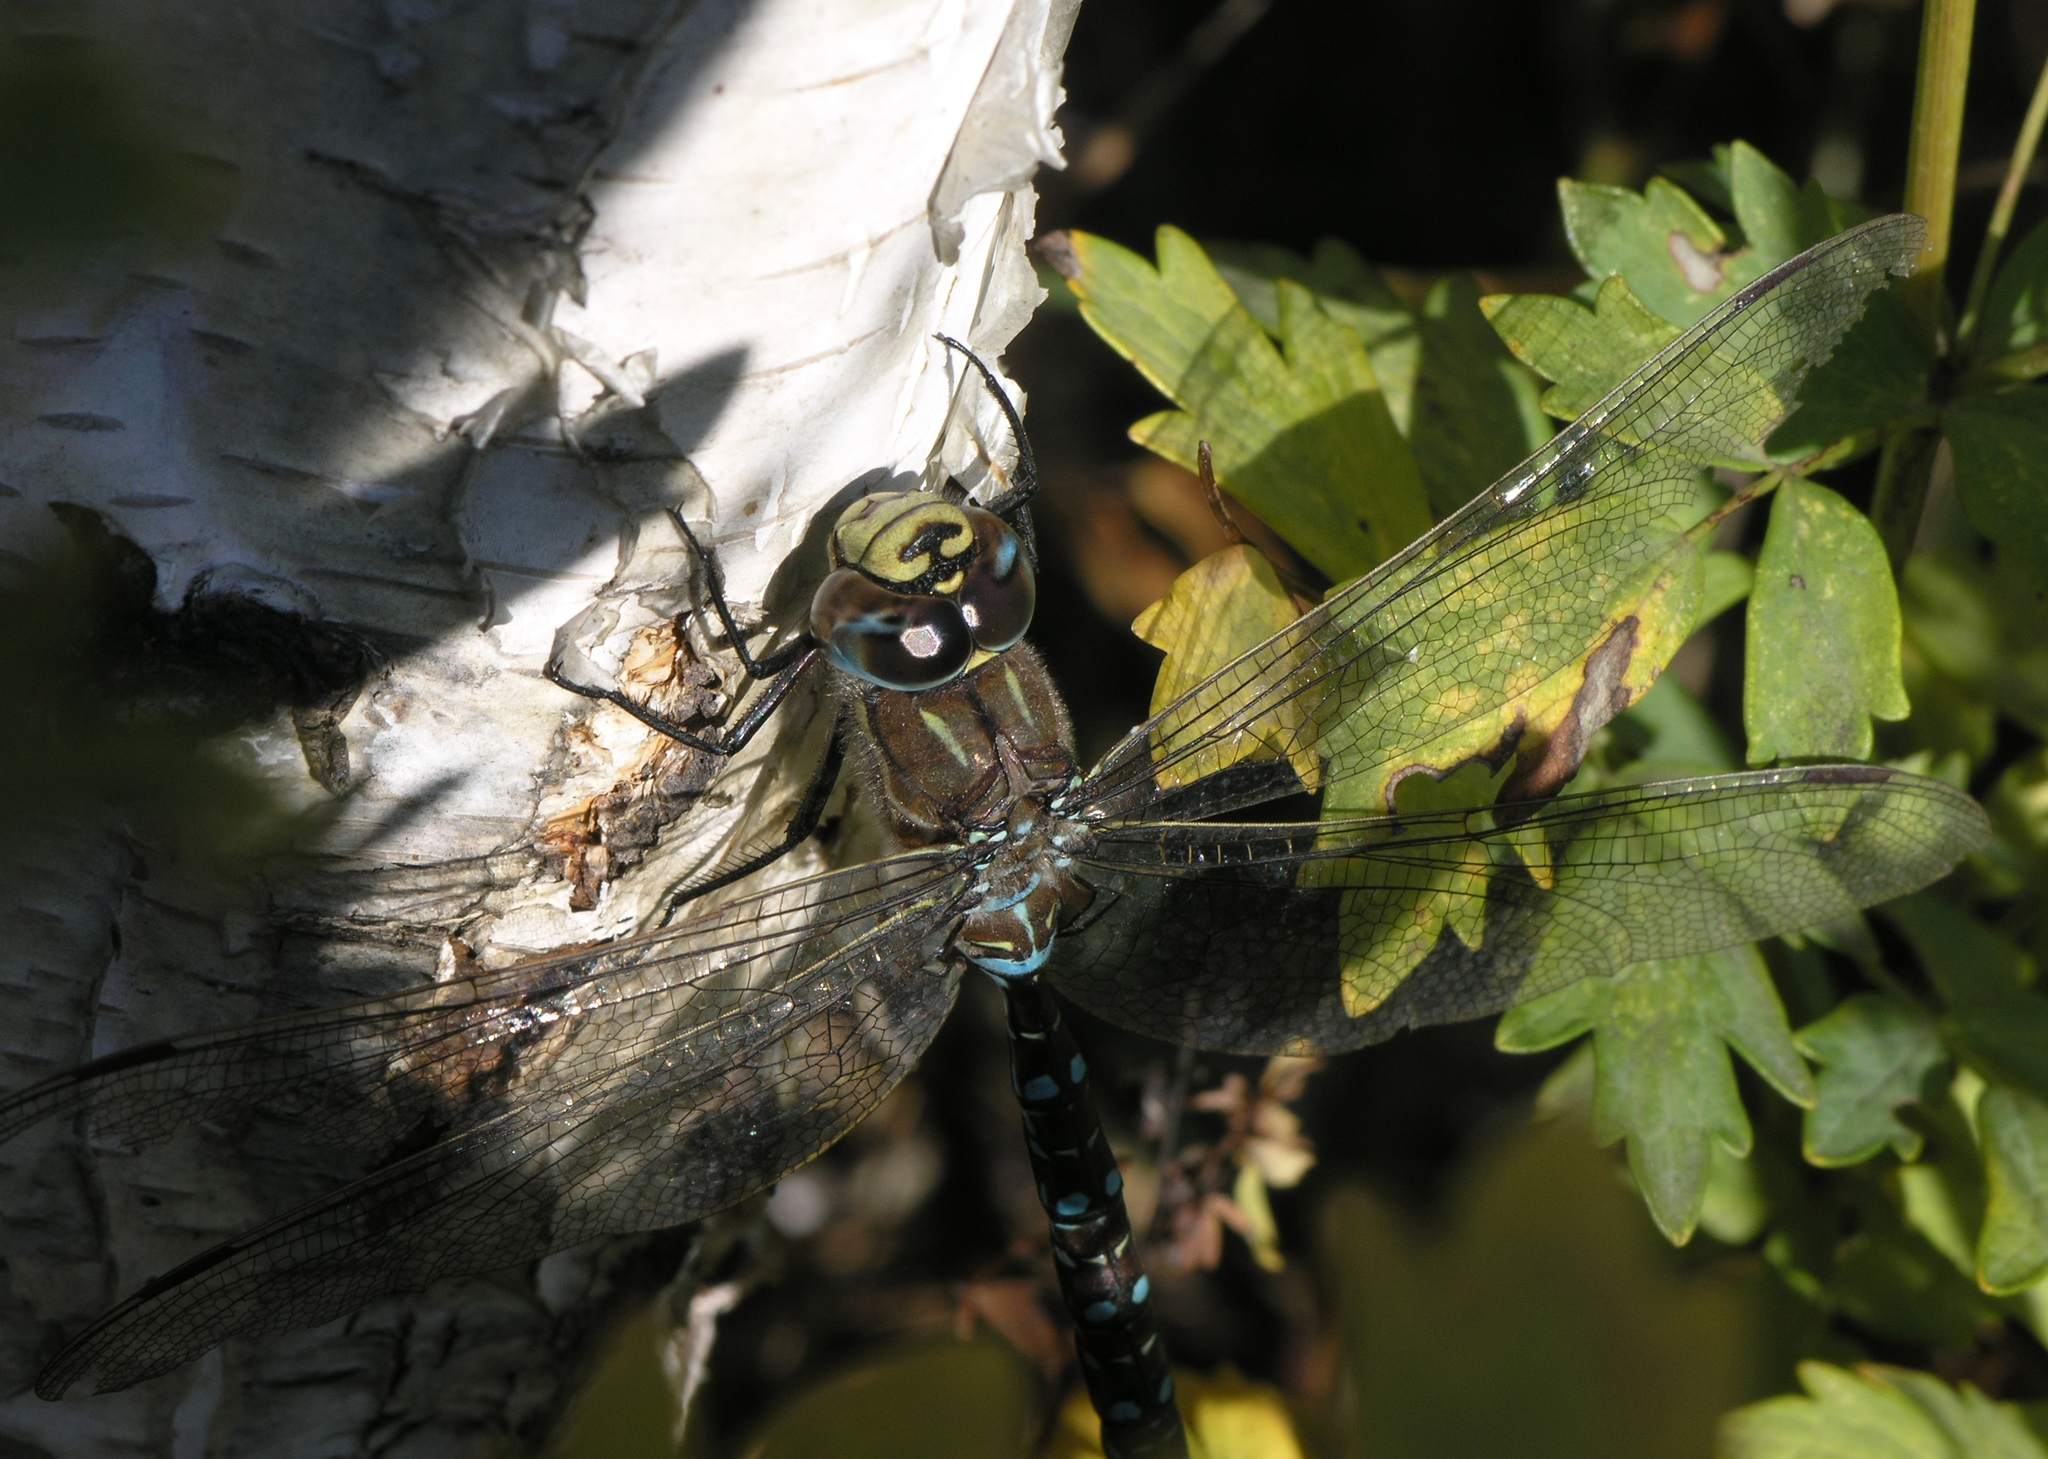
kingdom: Animalia
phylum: Arthropoda
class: Insecta
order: Odonata
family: Aeshnidae
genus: Aeshna
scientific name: Aeshna juncea
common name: Moorland hawker
